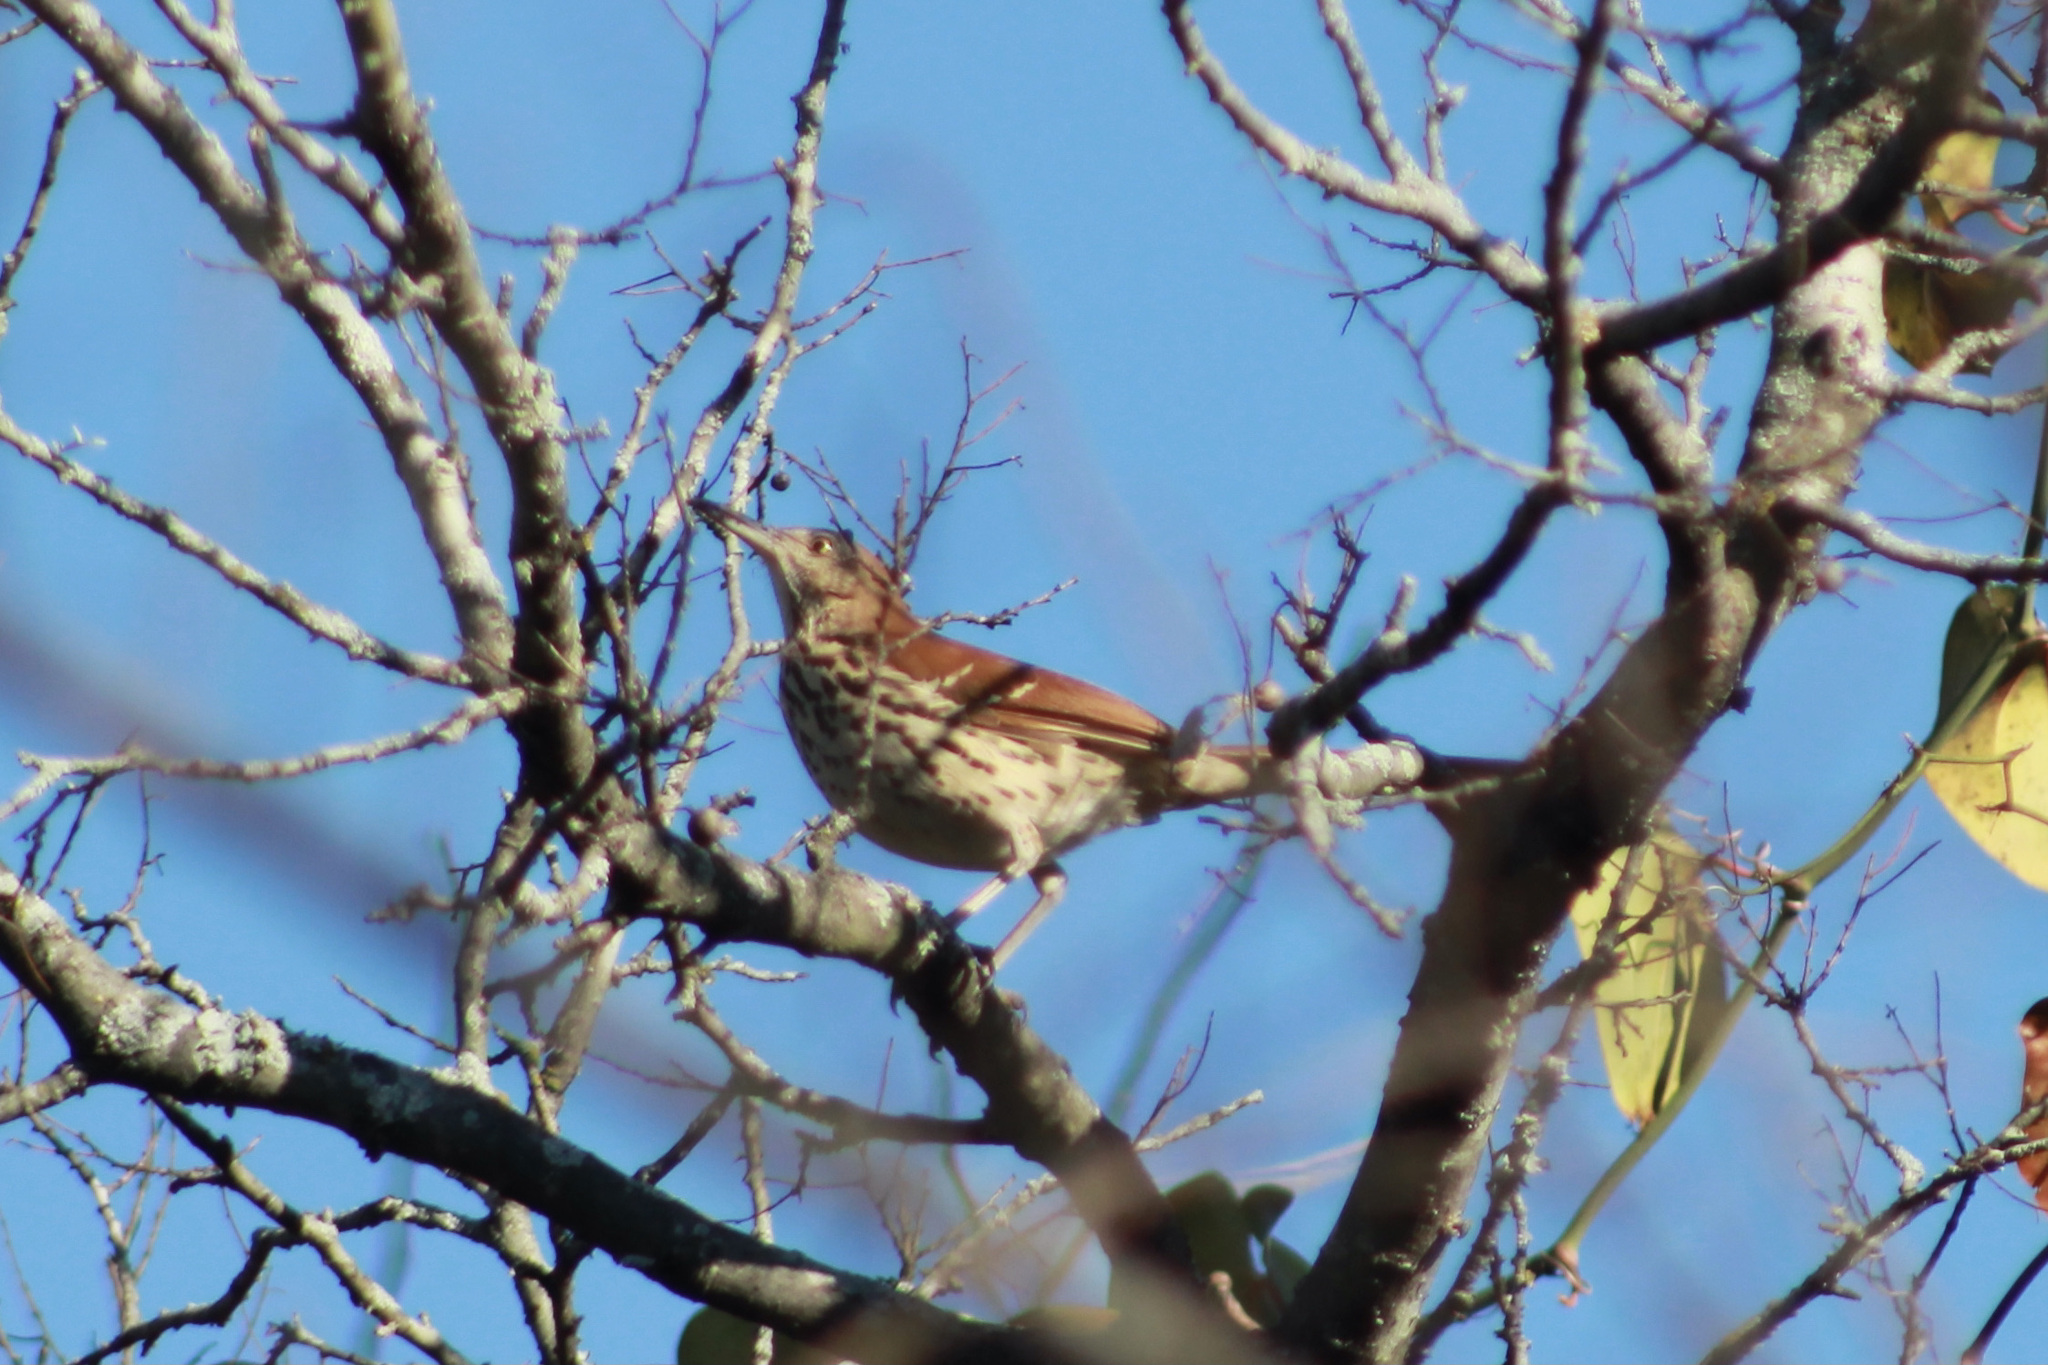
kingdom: Animalia
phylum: Chordata
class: Aves
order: Passeriformes
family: Mimidae
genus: Toxostoma
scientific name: Toxostoma rufum
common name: Brown thrasher
